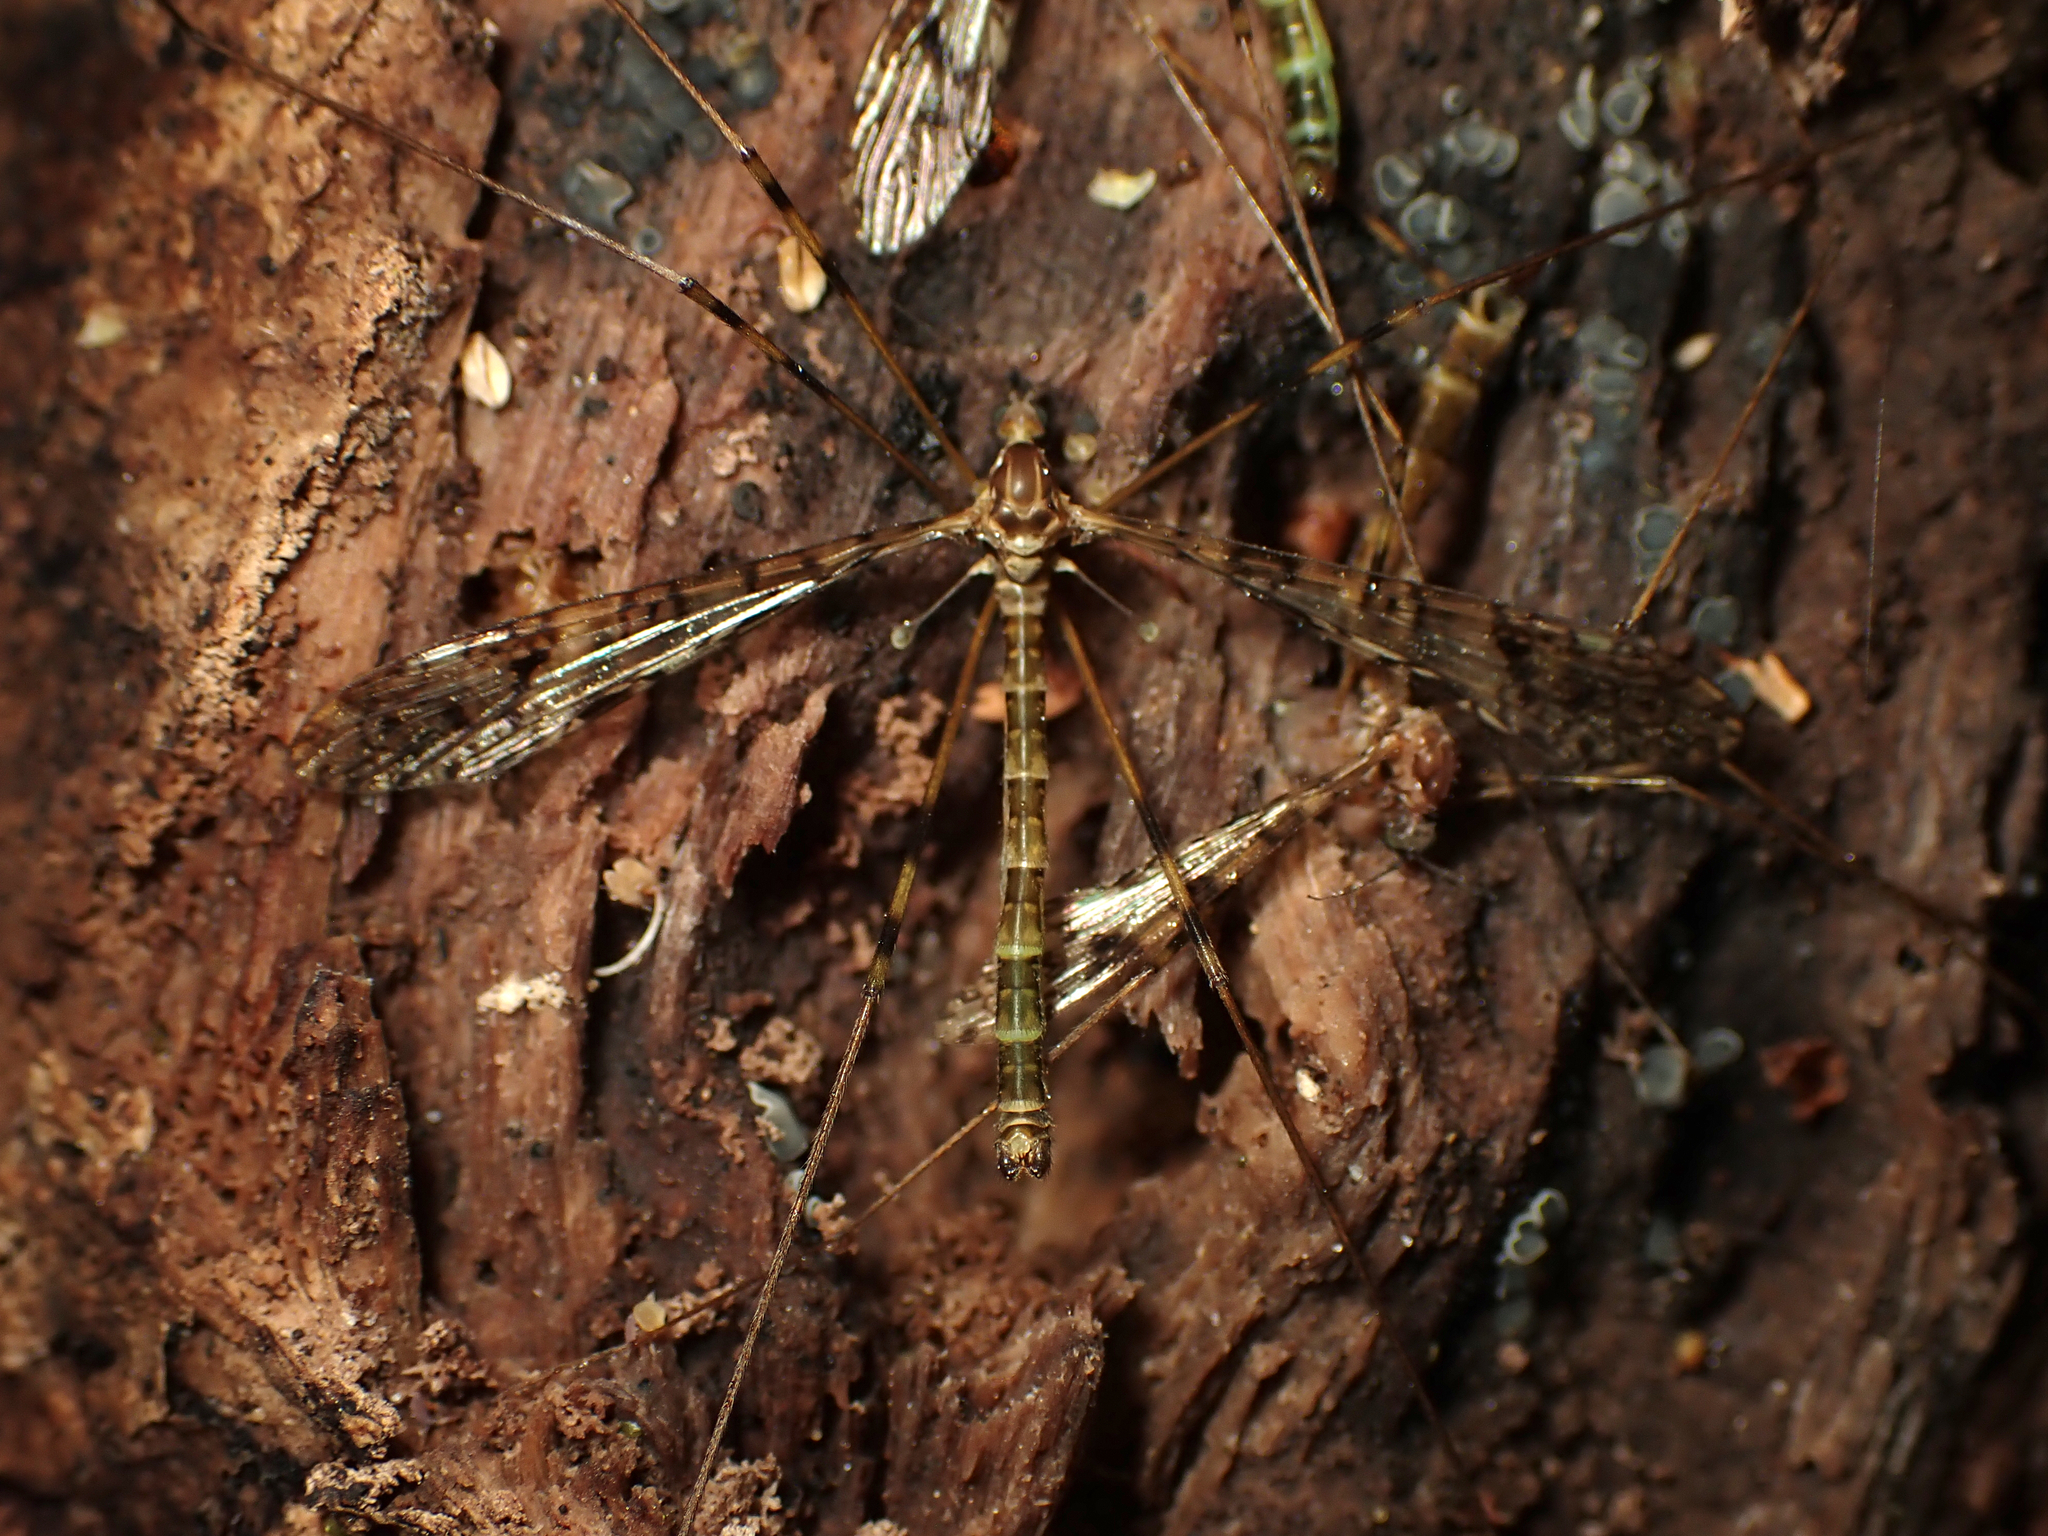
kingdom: Animalia
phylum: Arthropoda
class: Insecta
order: Diptera
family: Limoniidae
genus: Austrolimnophila
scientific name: Austrolimnophila argus
